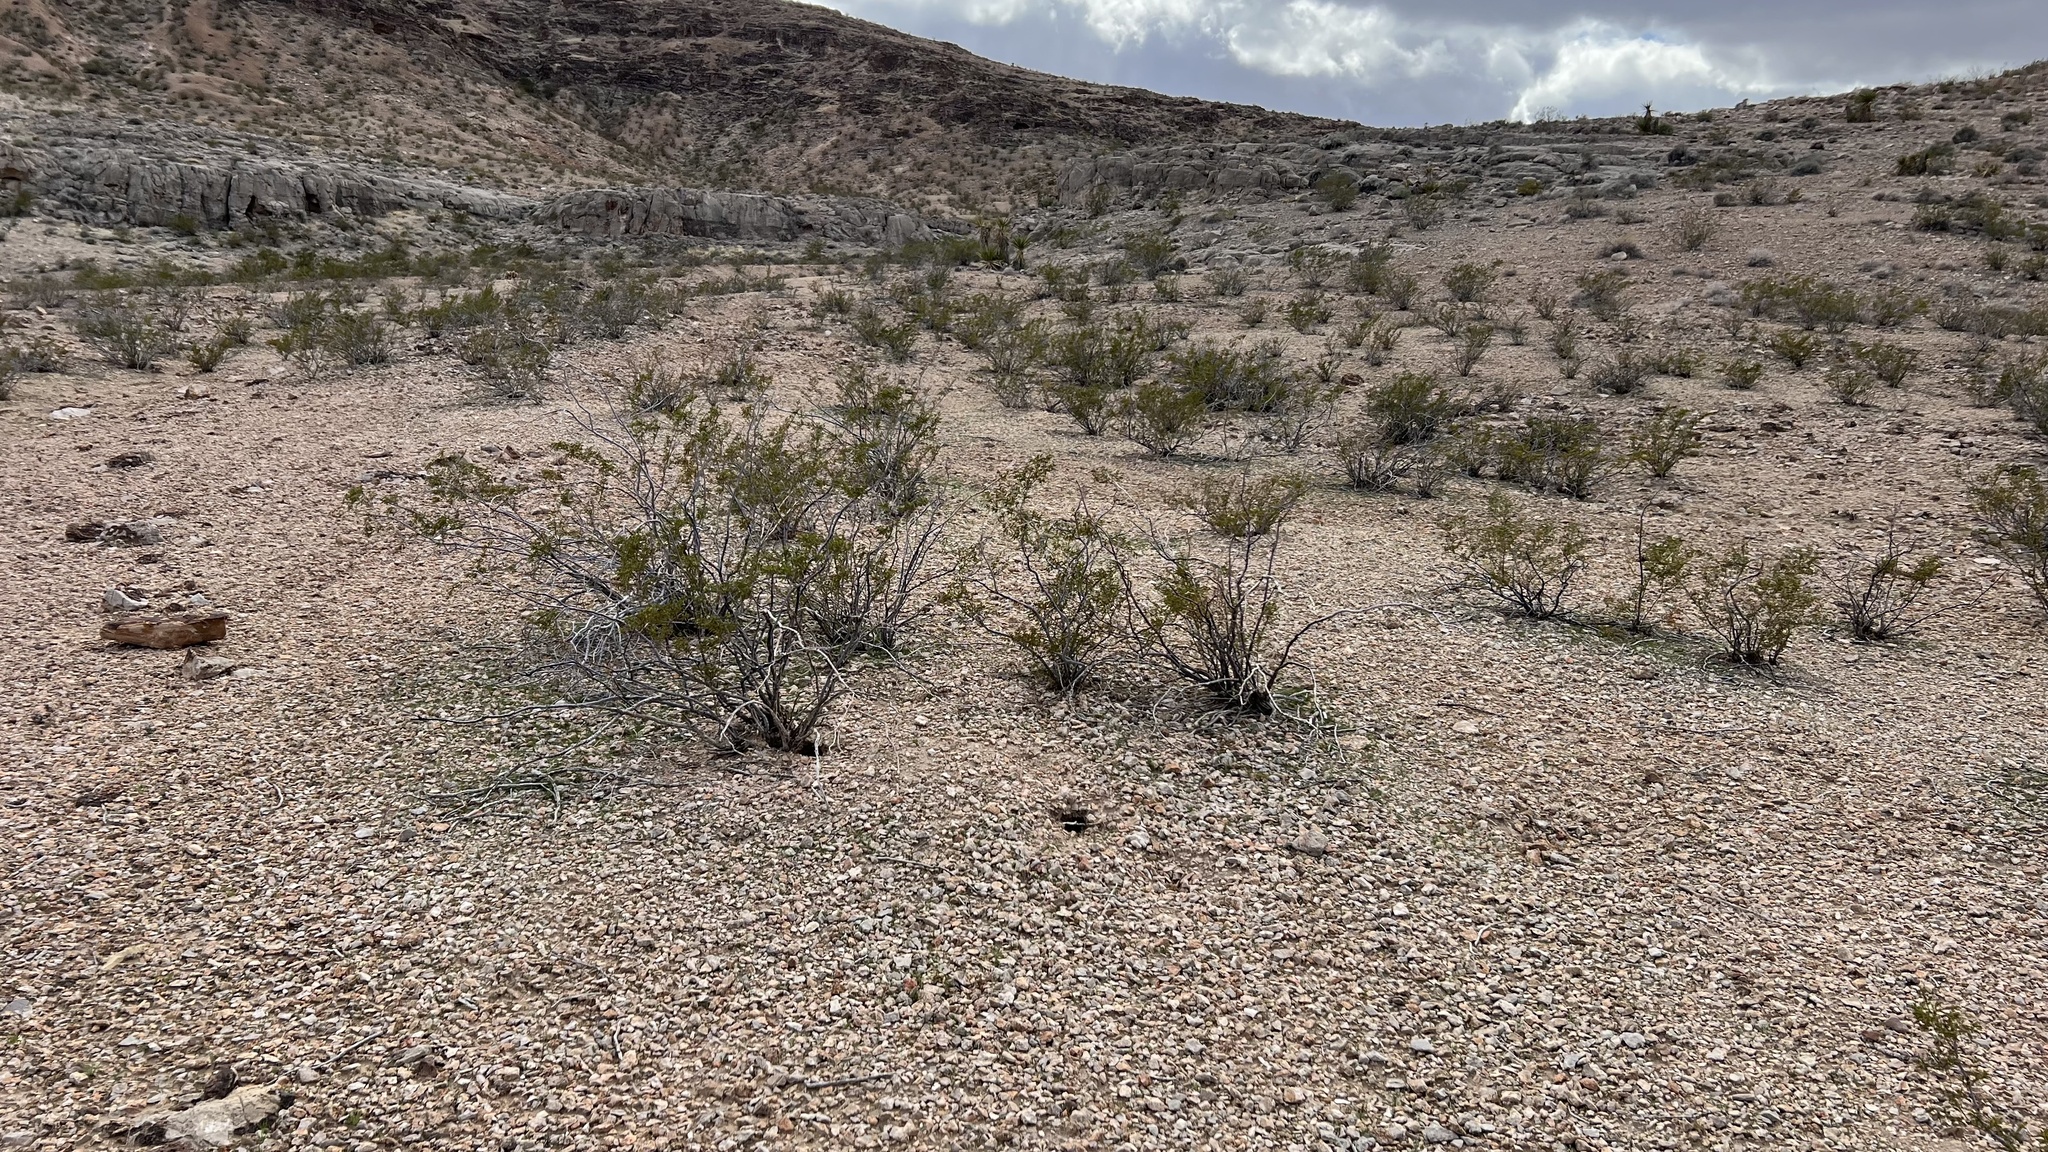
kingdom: Plantae
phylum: Tracheophyta
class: Magnoliopsida
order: Zygophyllales
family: Zygophyllaceae
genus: Larrea
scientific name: Larrea tridentata
